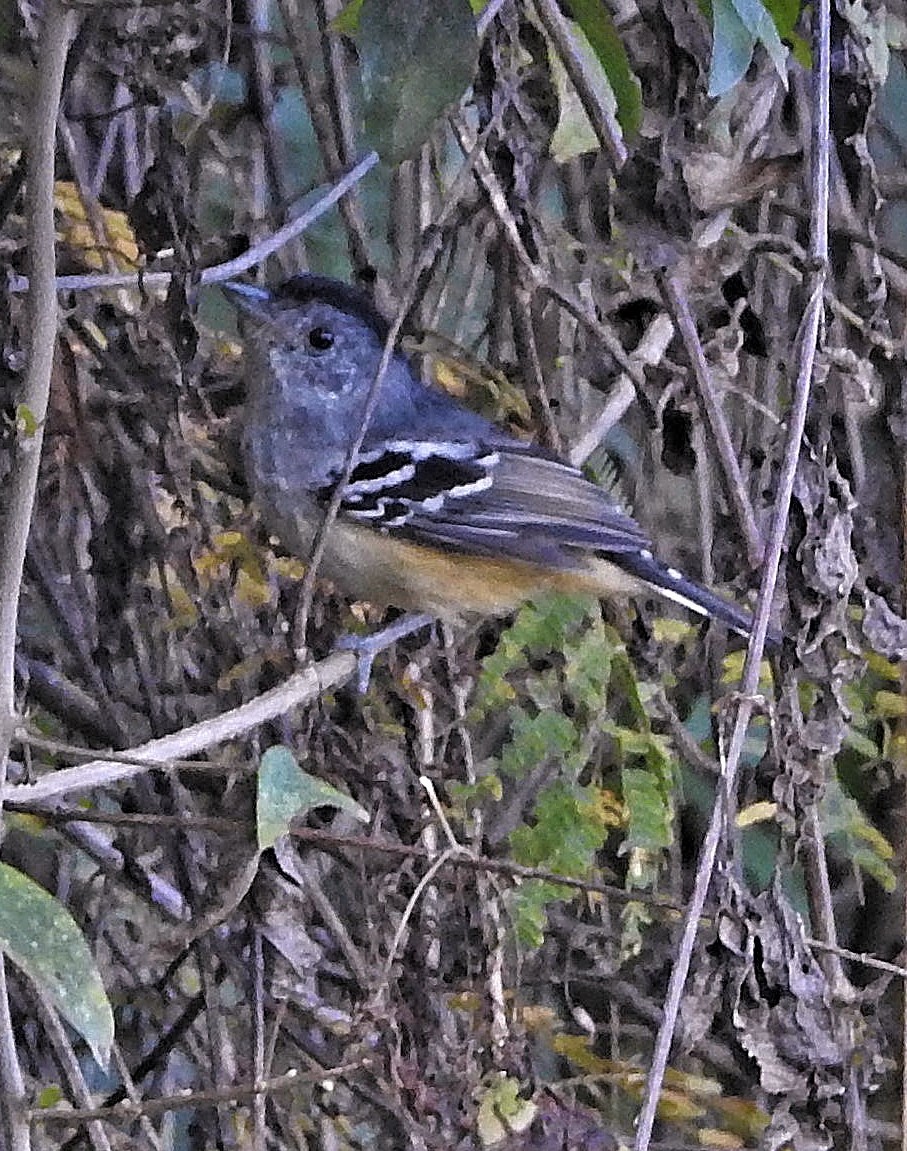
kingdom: Animalia
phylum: Chordata
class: Aves
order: Passeriformes
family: Thamnophilidae
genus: Thamnophilus
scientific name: Thamnophilus caerulescens
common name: Variable antshrike
